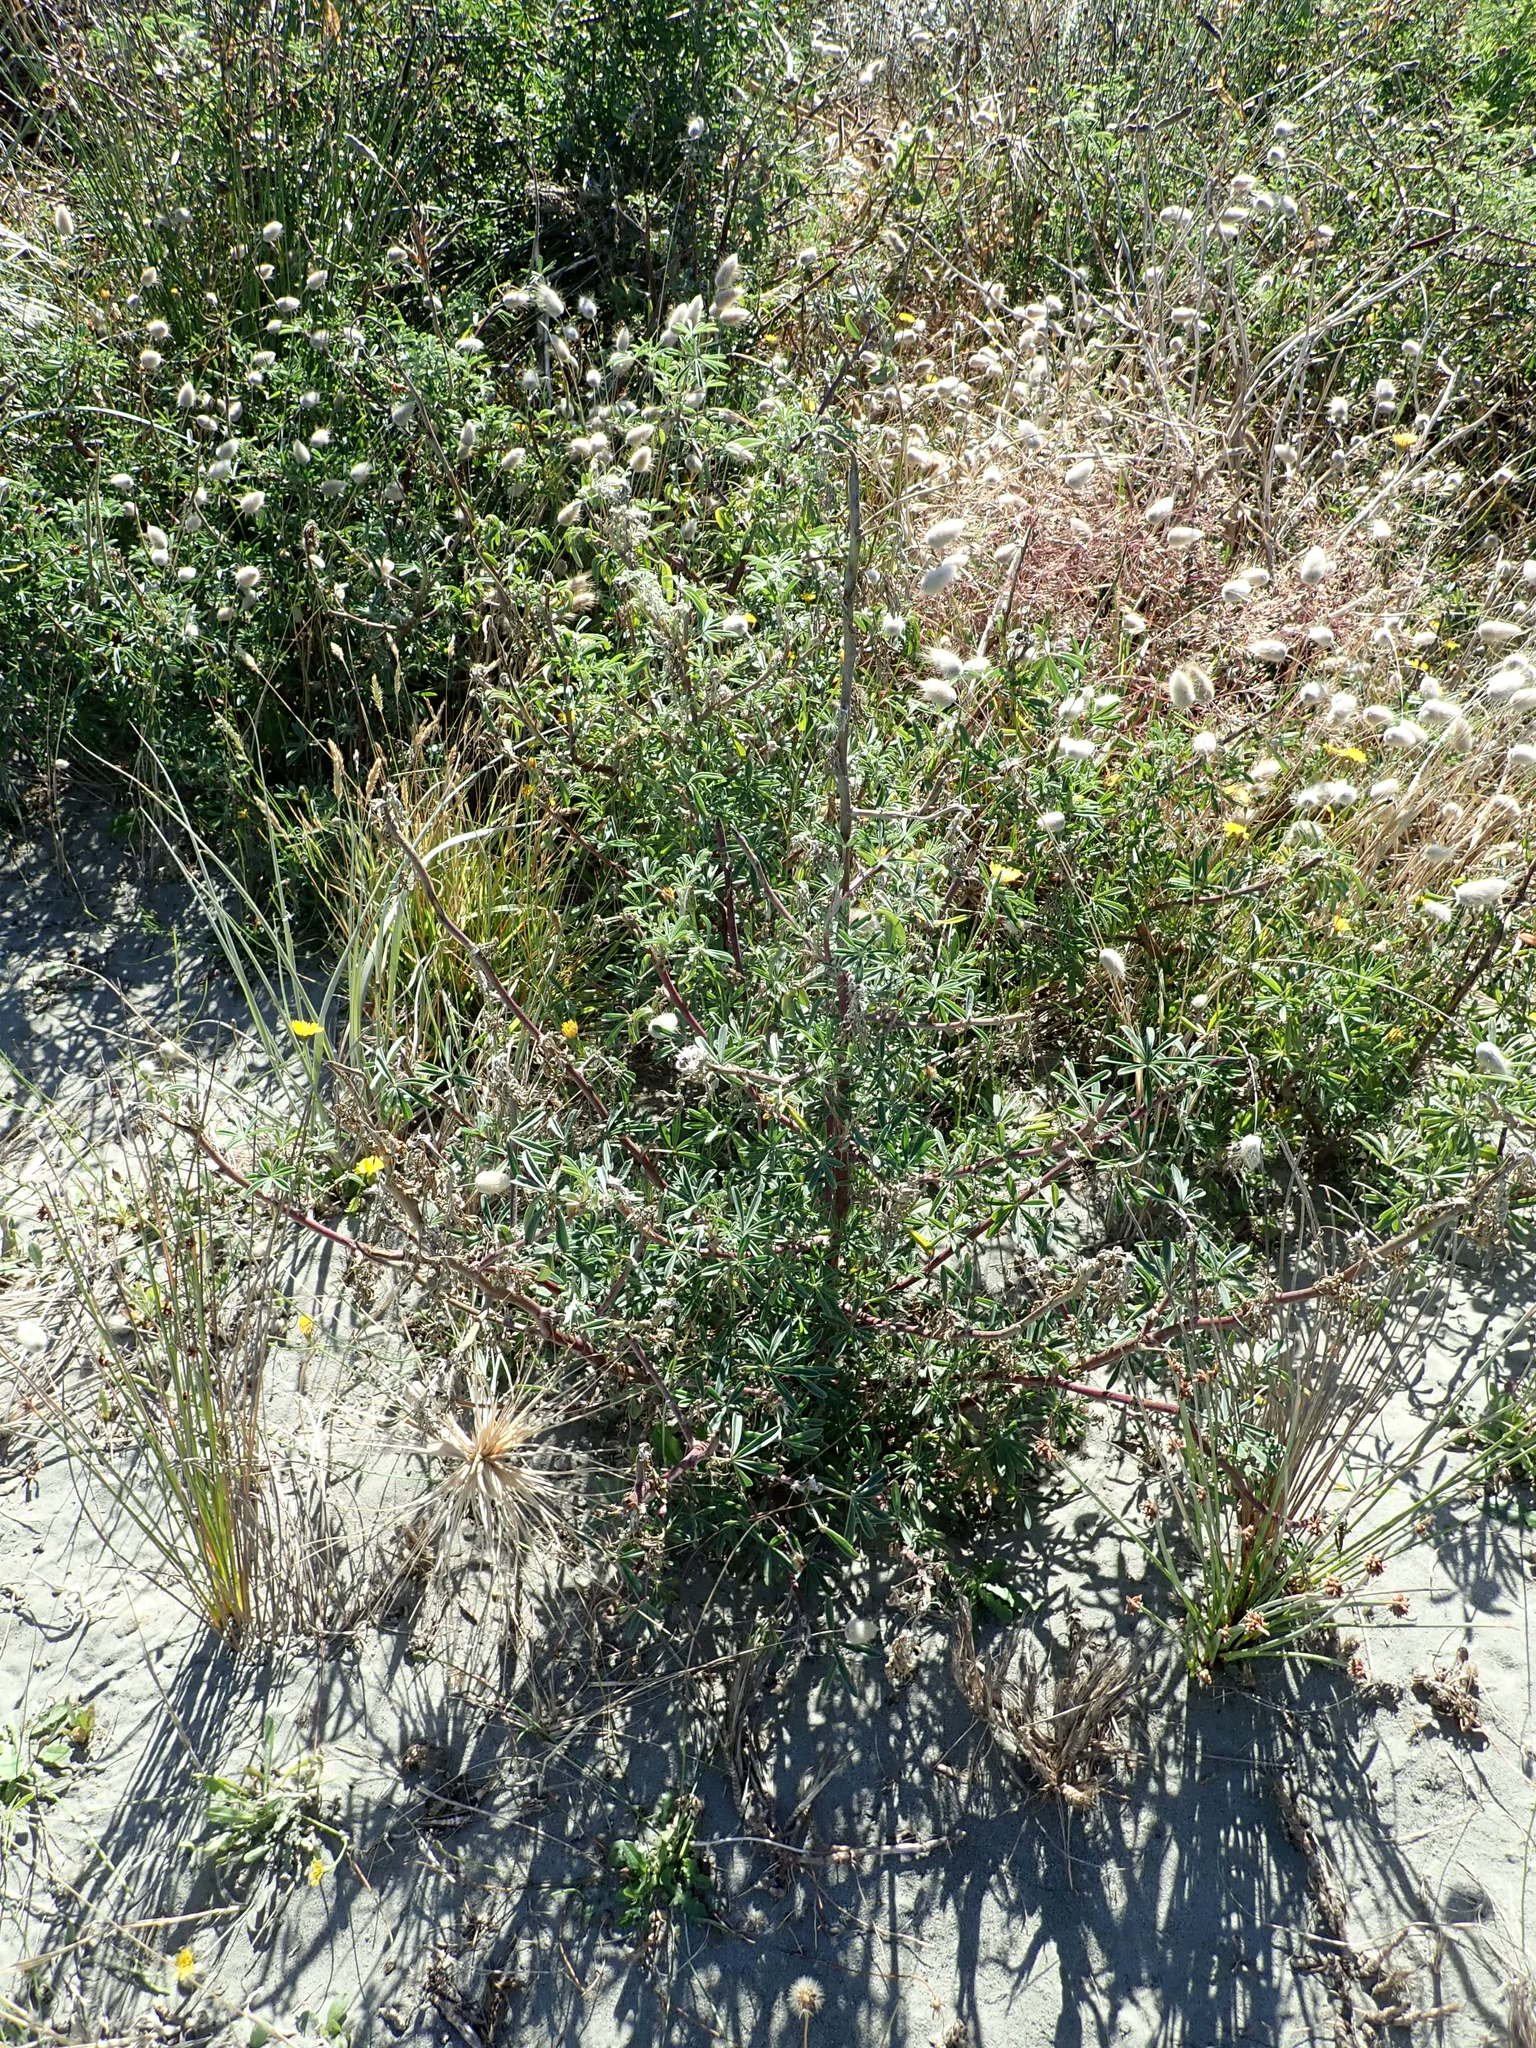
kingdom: Plantae
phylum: Tracheophyta
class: Magnoliopsida
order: Fabales
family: Fabaceae
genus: Lupinus
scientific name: Lupinus arboreus
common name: Yellow bush lupine
